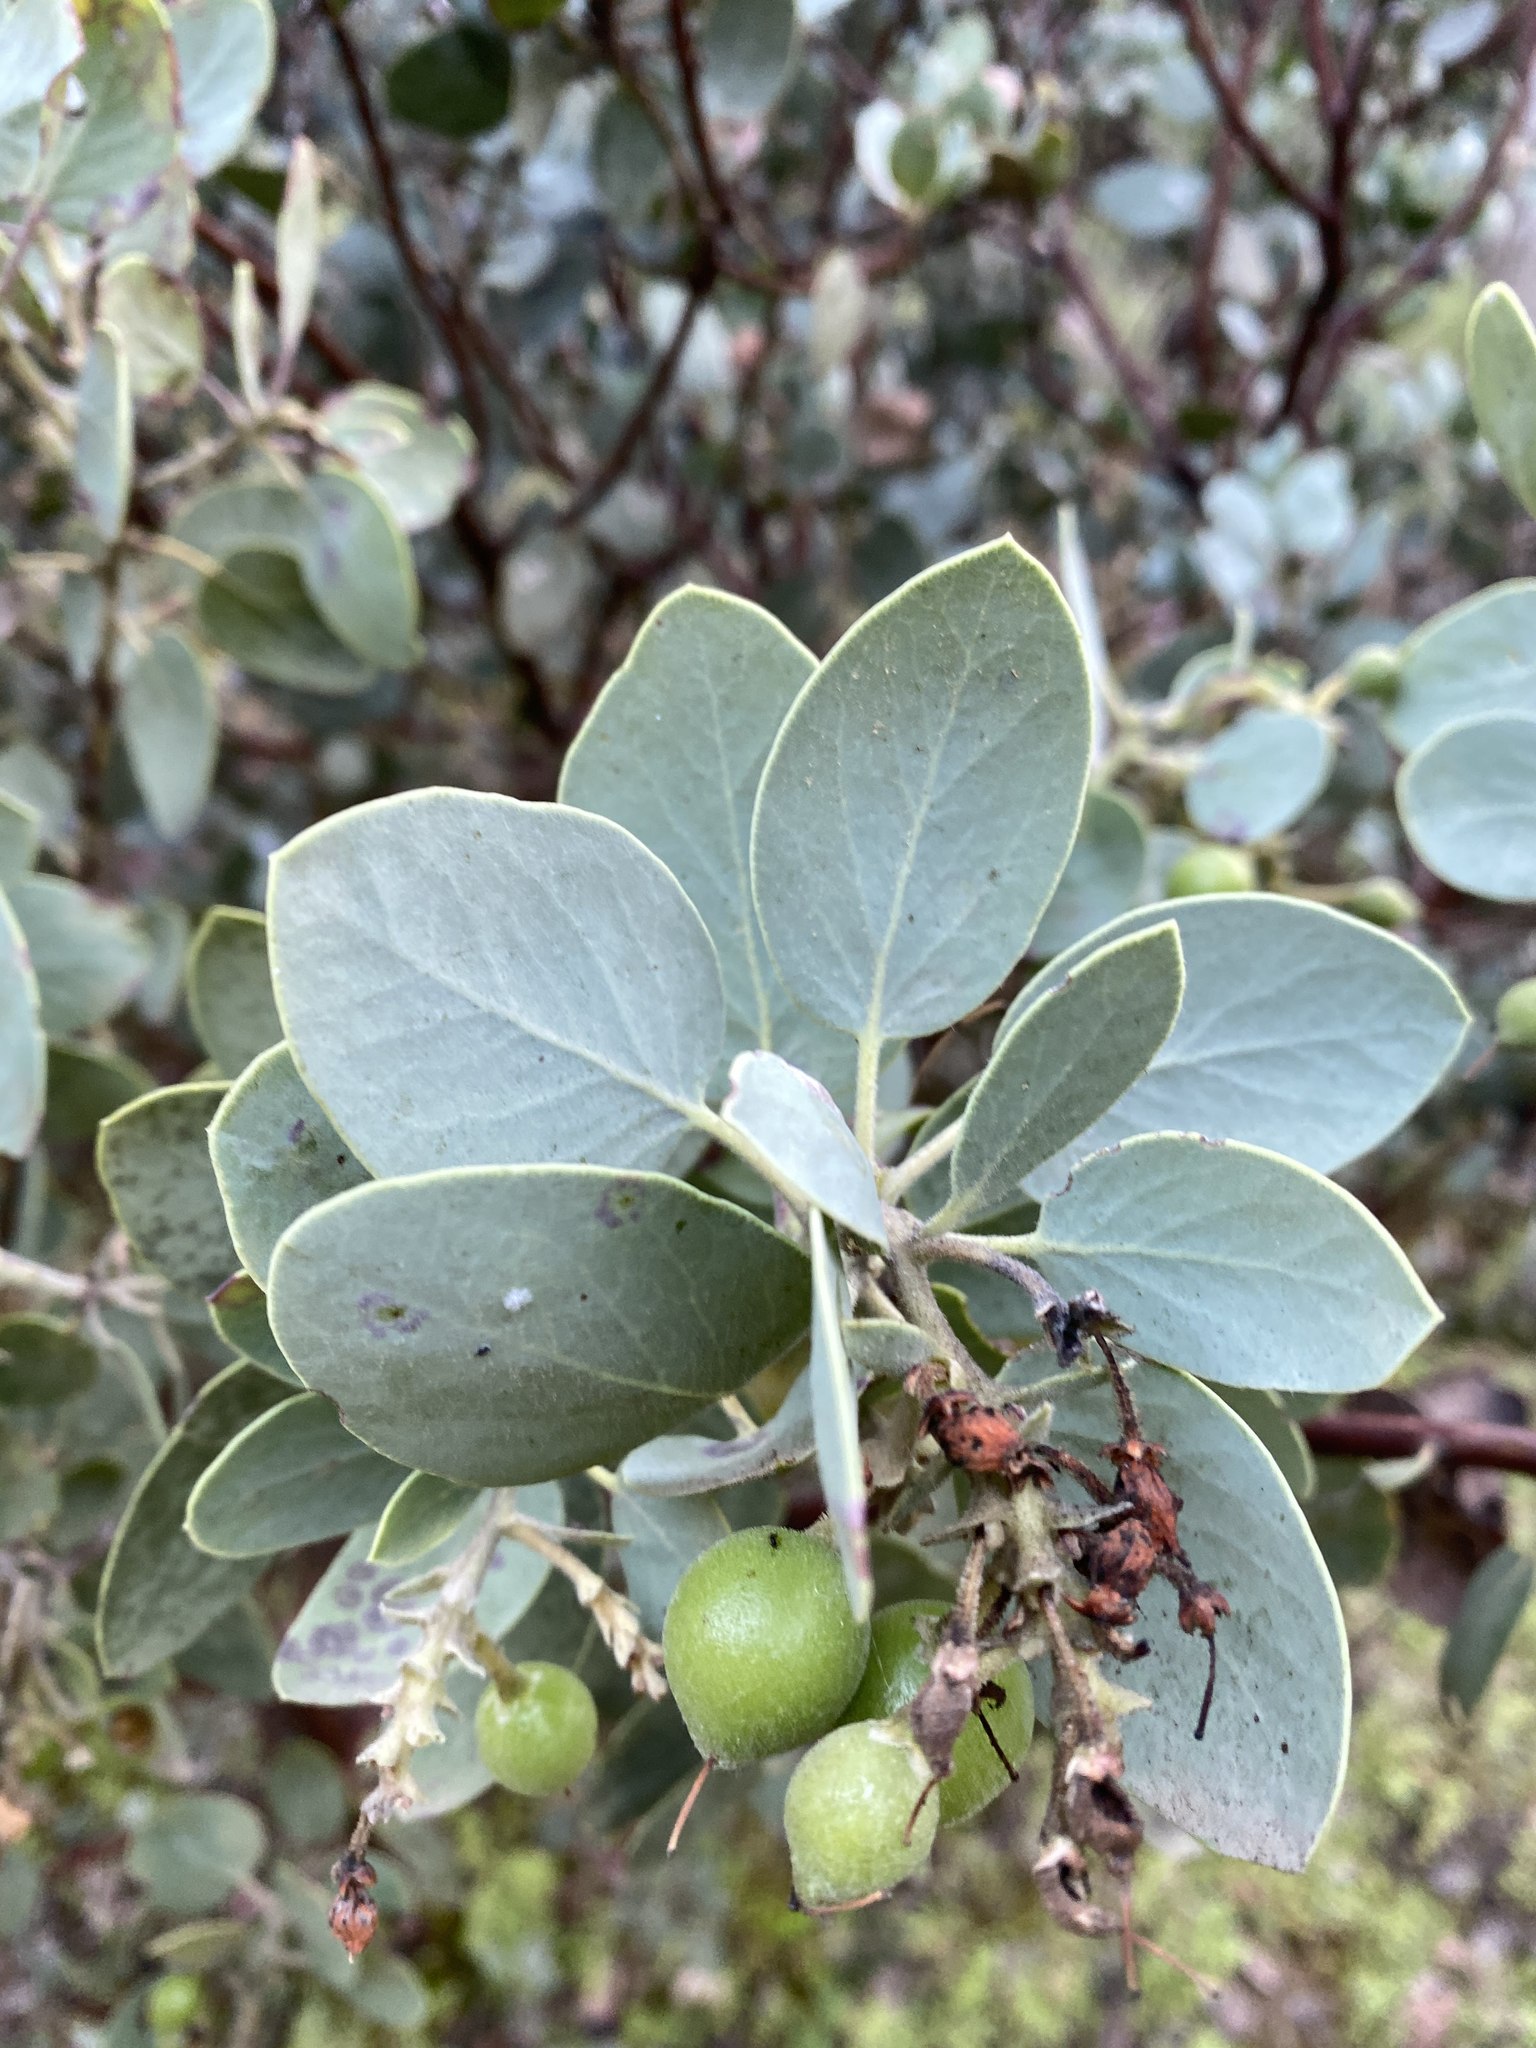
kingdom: Plantae
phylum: Tracheophyta
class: Magnoliopsida
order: Ericales
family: Ericaceae
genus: Arctostaphylos
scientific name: Arctostaphylos glauca
